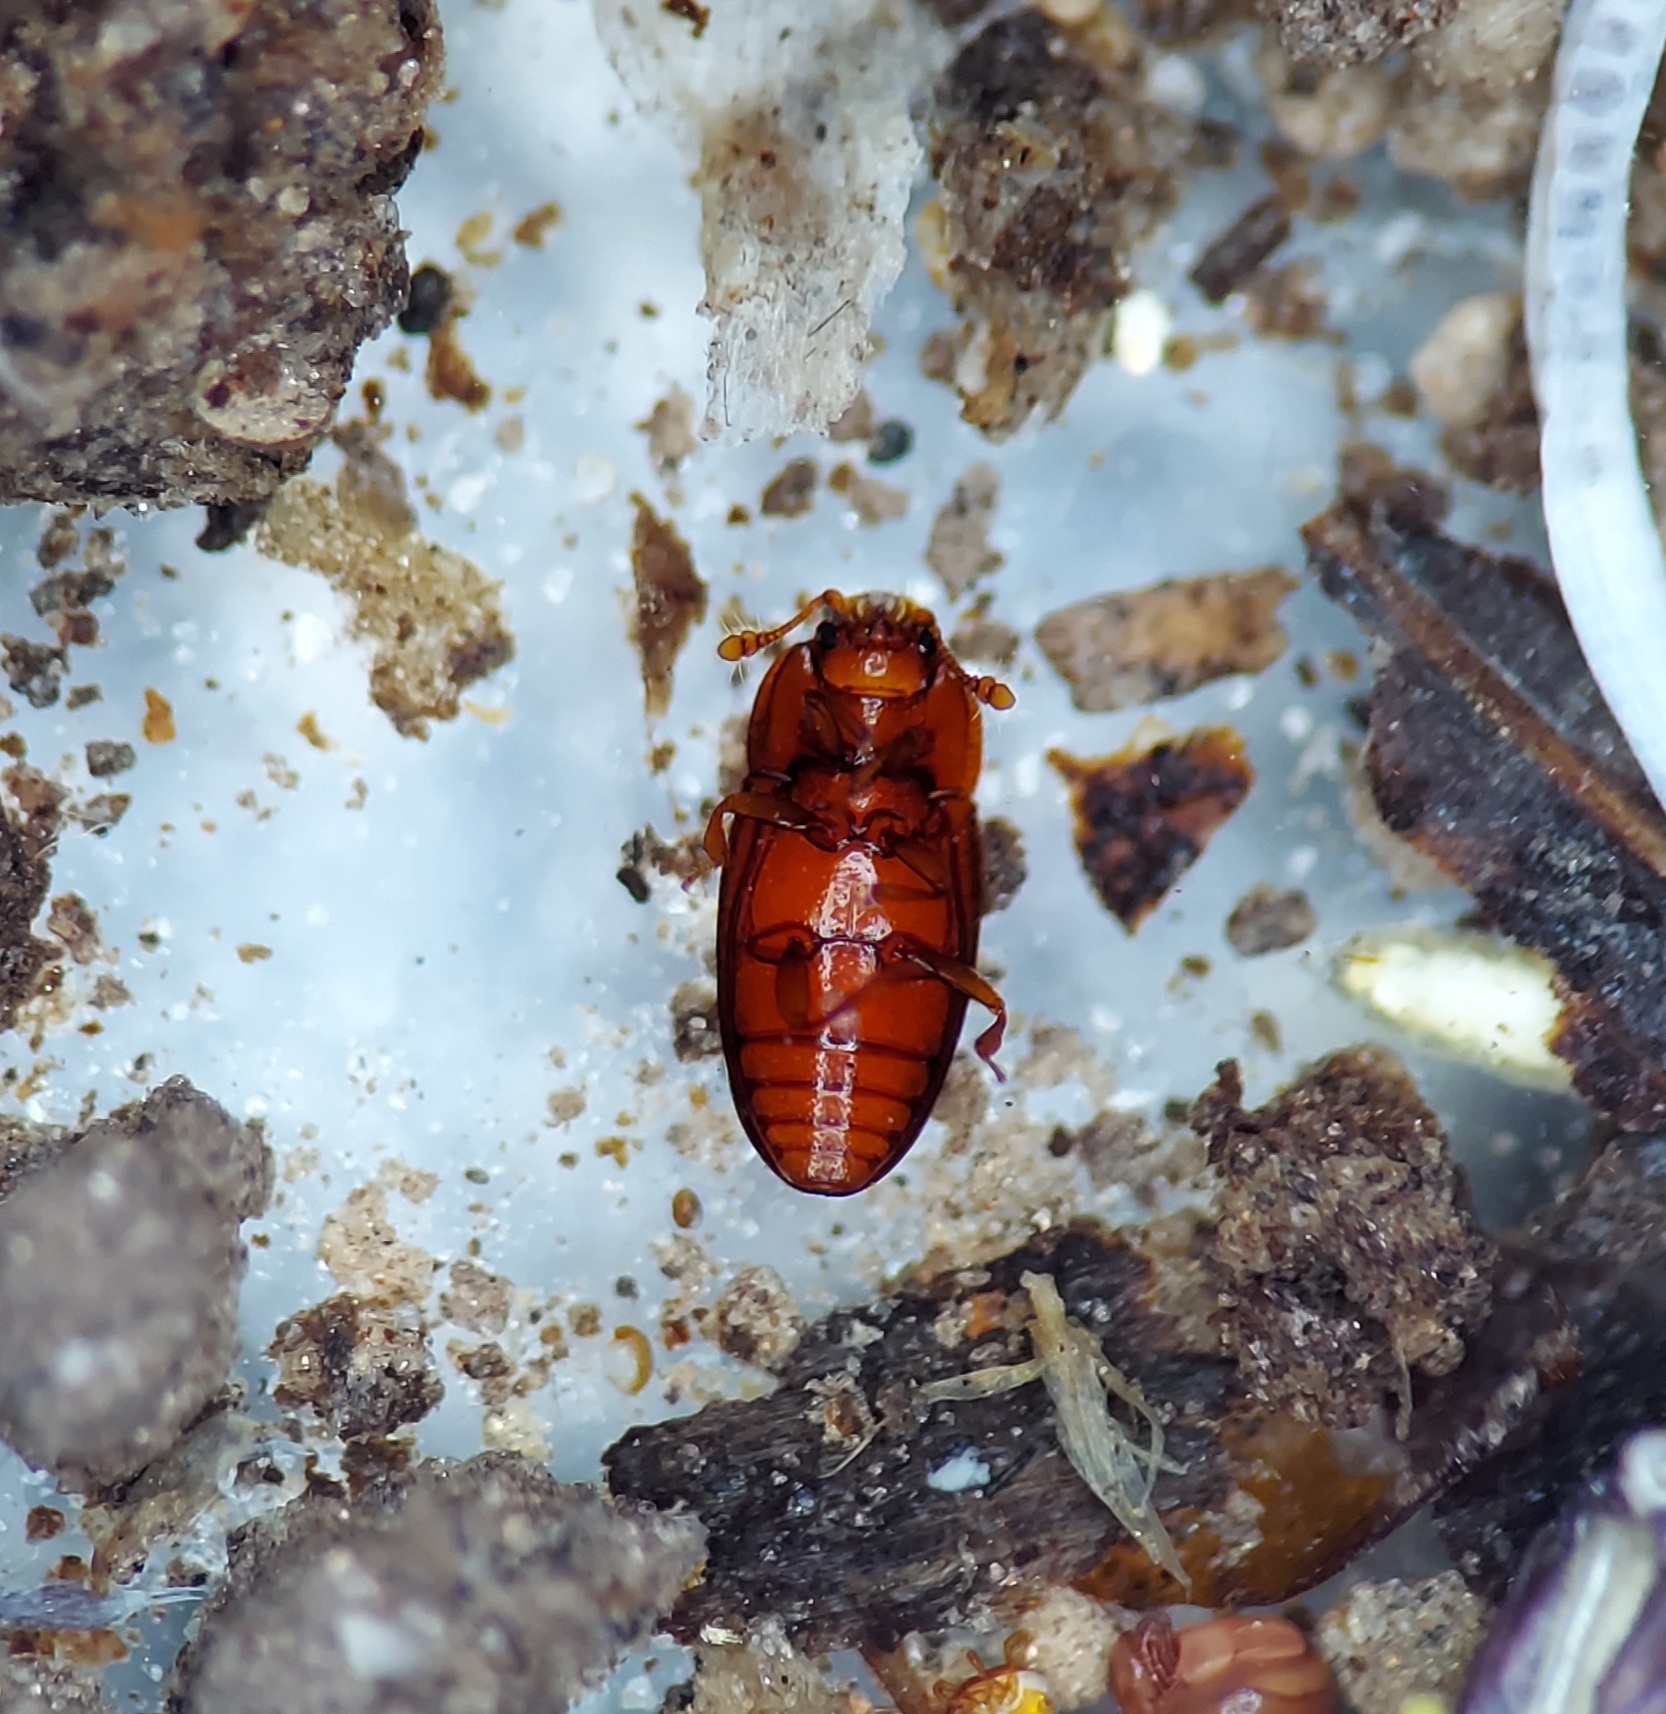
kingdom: Animalia
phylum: Arthropoda
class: Insecta
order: Coleoptera
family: Cerylonidae
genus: Philothermus
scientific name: Philothermus glabriculus
